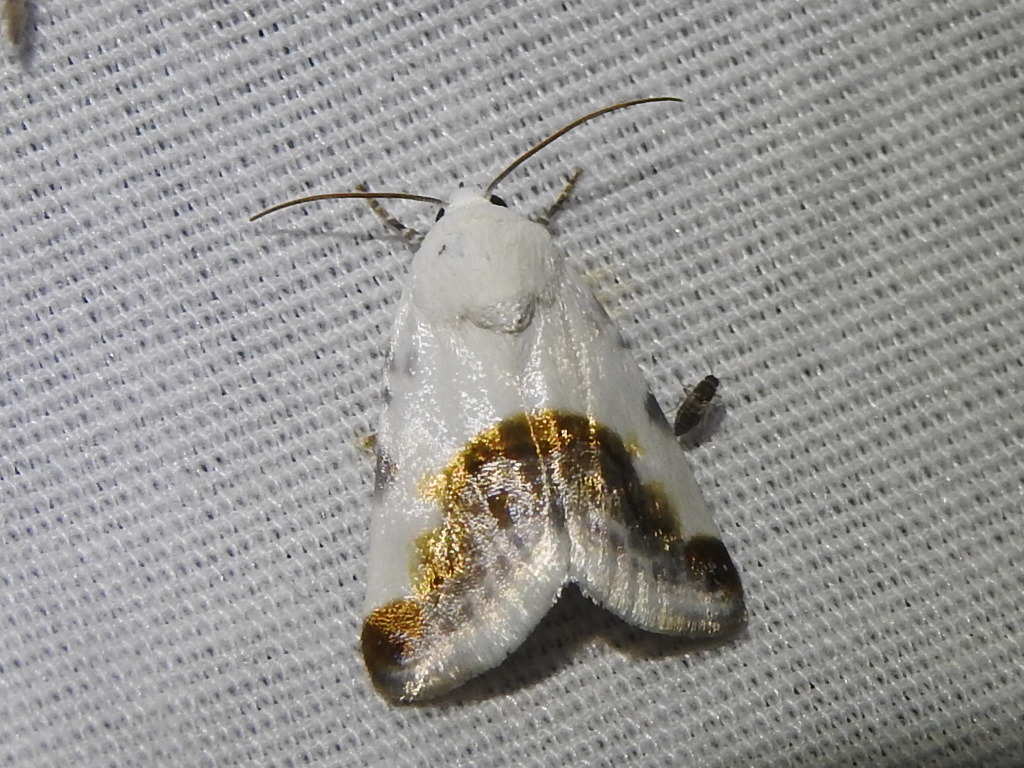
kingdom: Animalia
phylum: Arthropoda
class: Insecta
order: Lepidoptera
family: Noctuidae
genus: Acontia
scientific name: Acontia cretata
